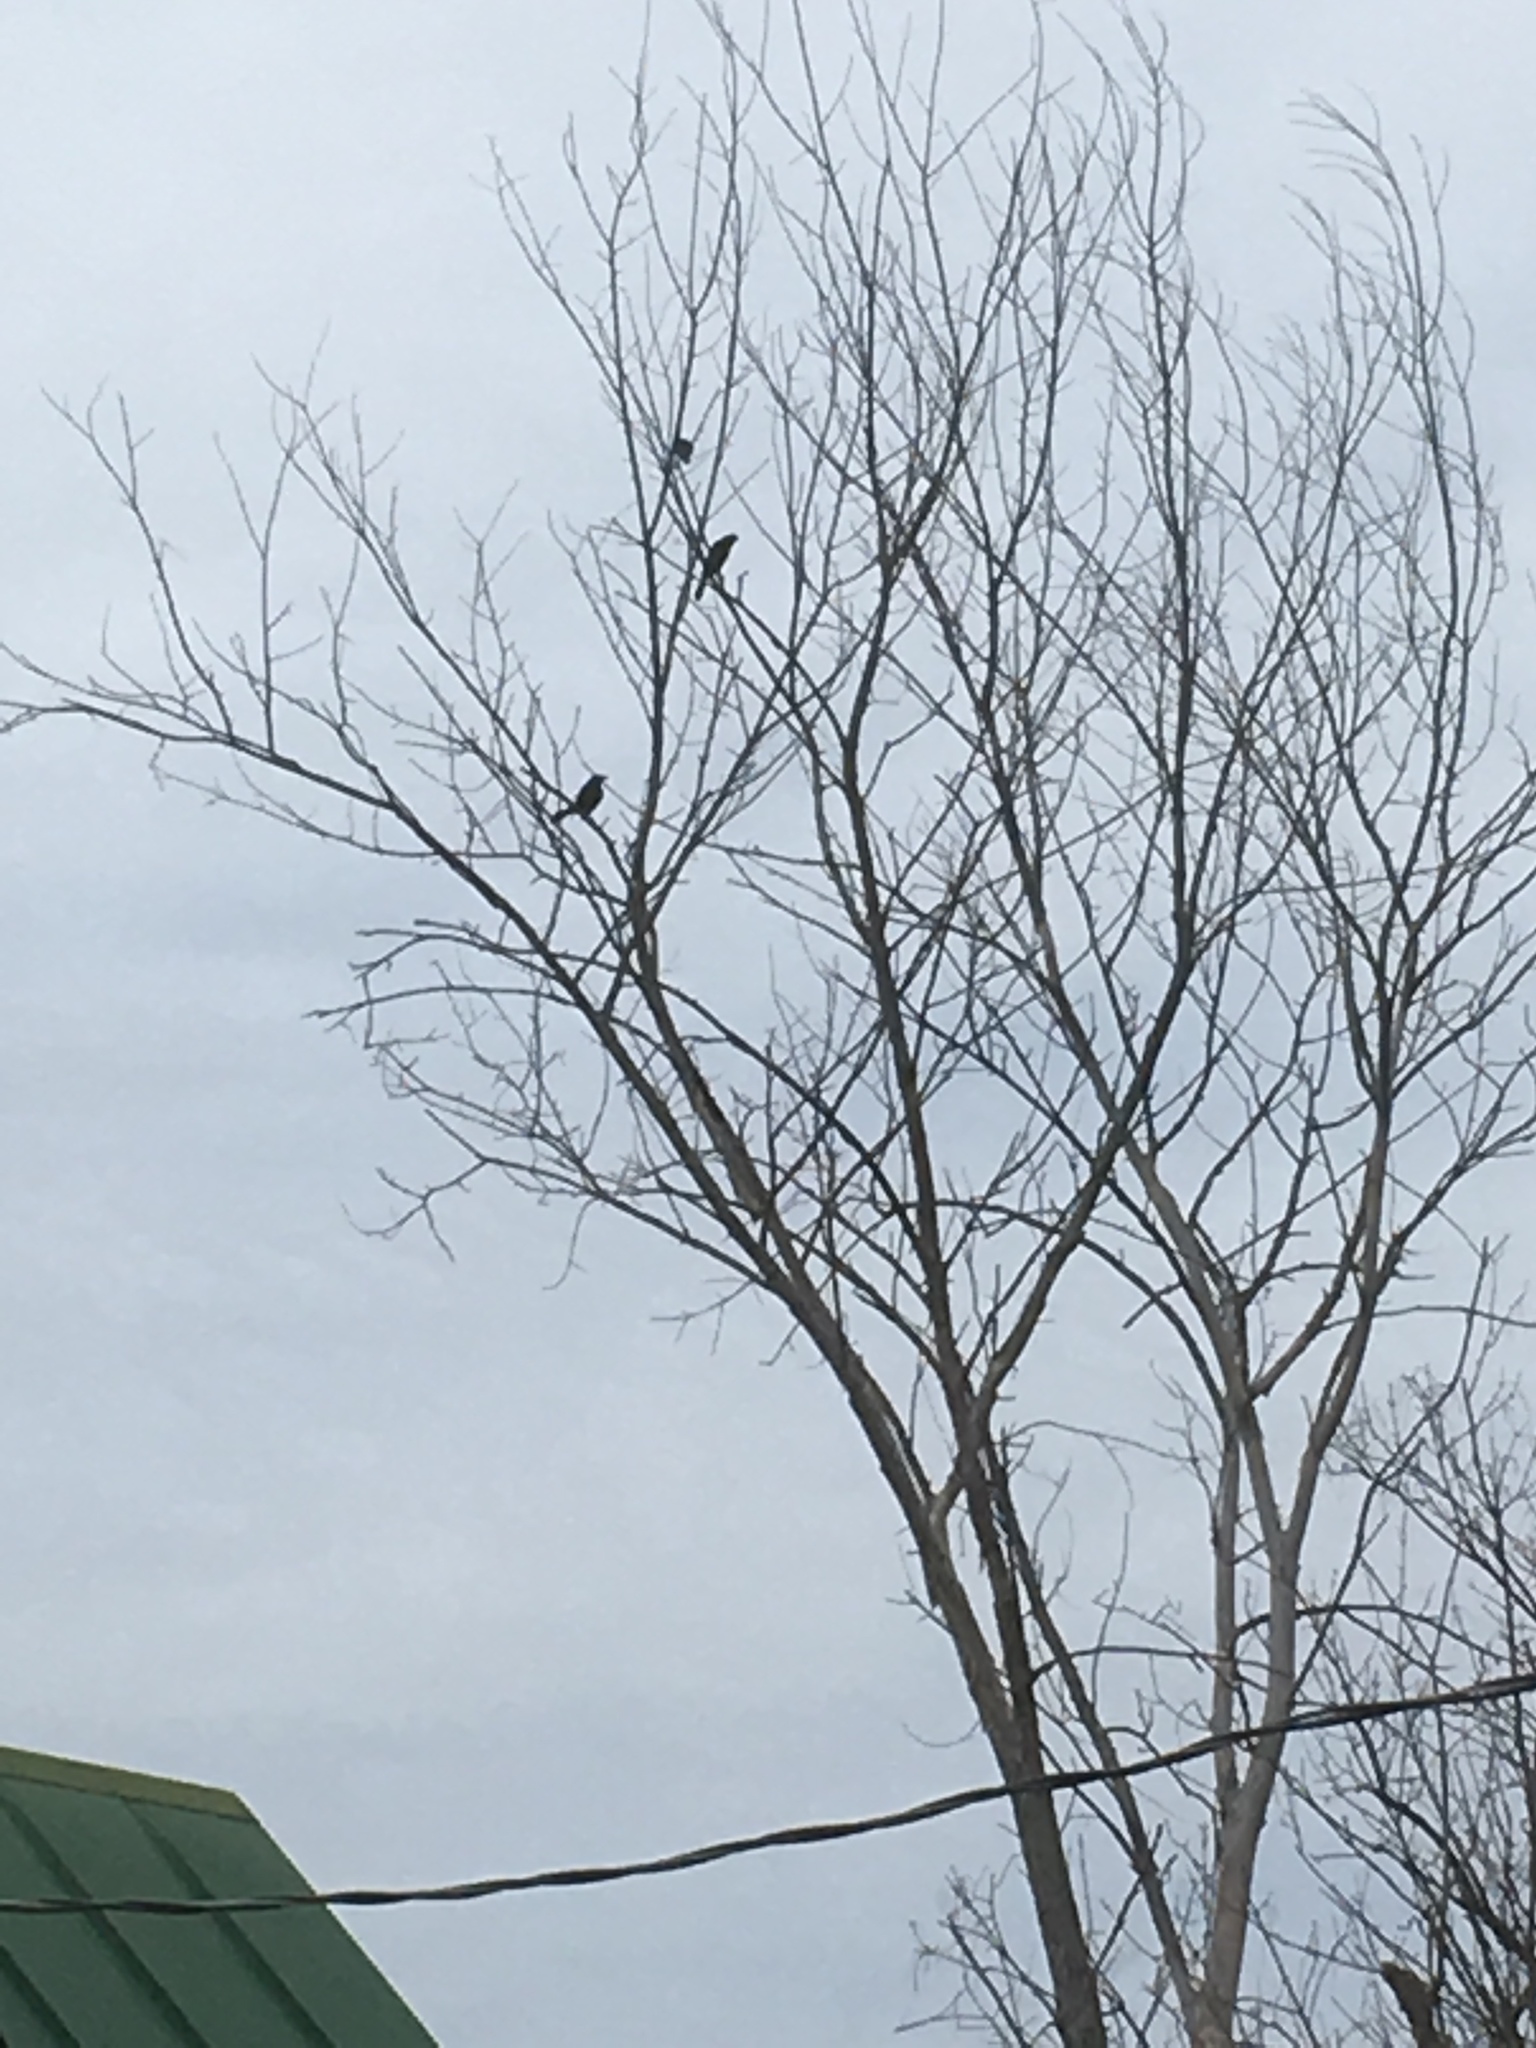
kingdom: Animalia
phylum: Chordata
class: Aves
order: Passeriformes
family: Icteridae
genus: Quiscalus
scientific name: Quiscalus quiscula
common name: Common grackle
